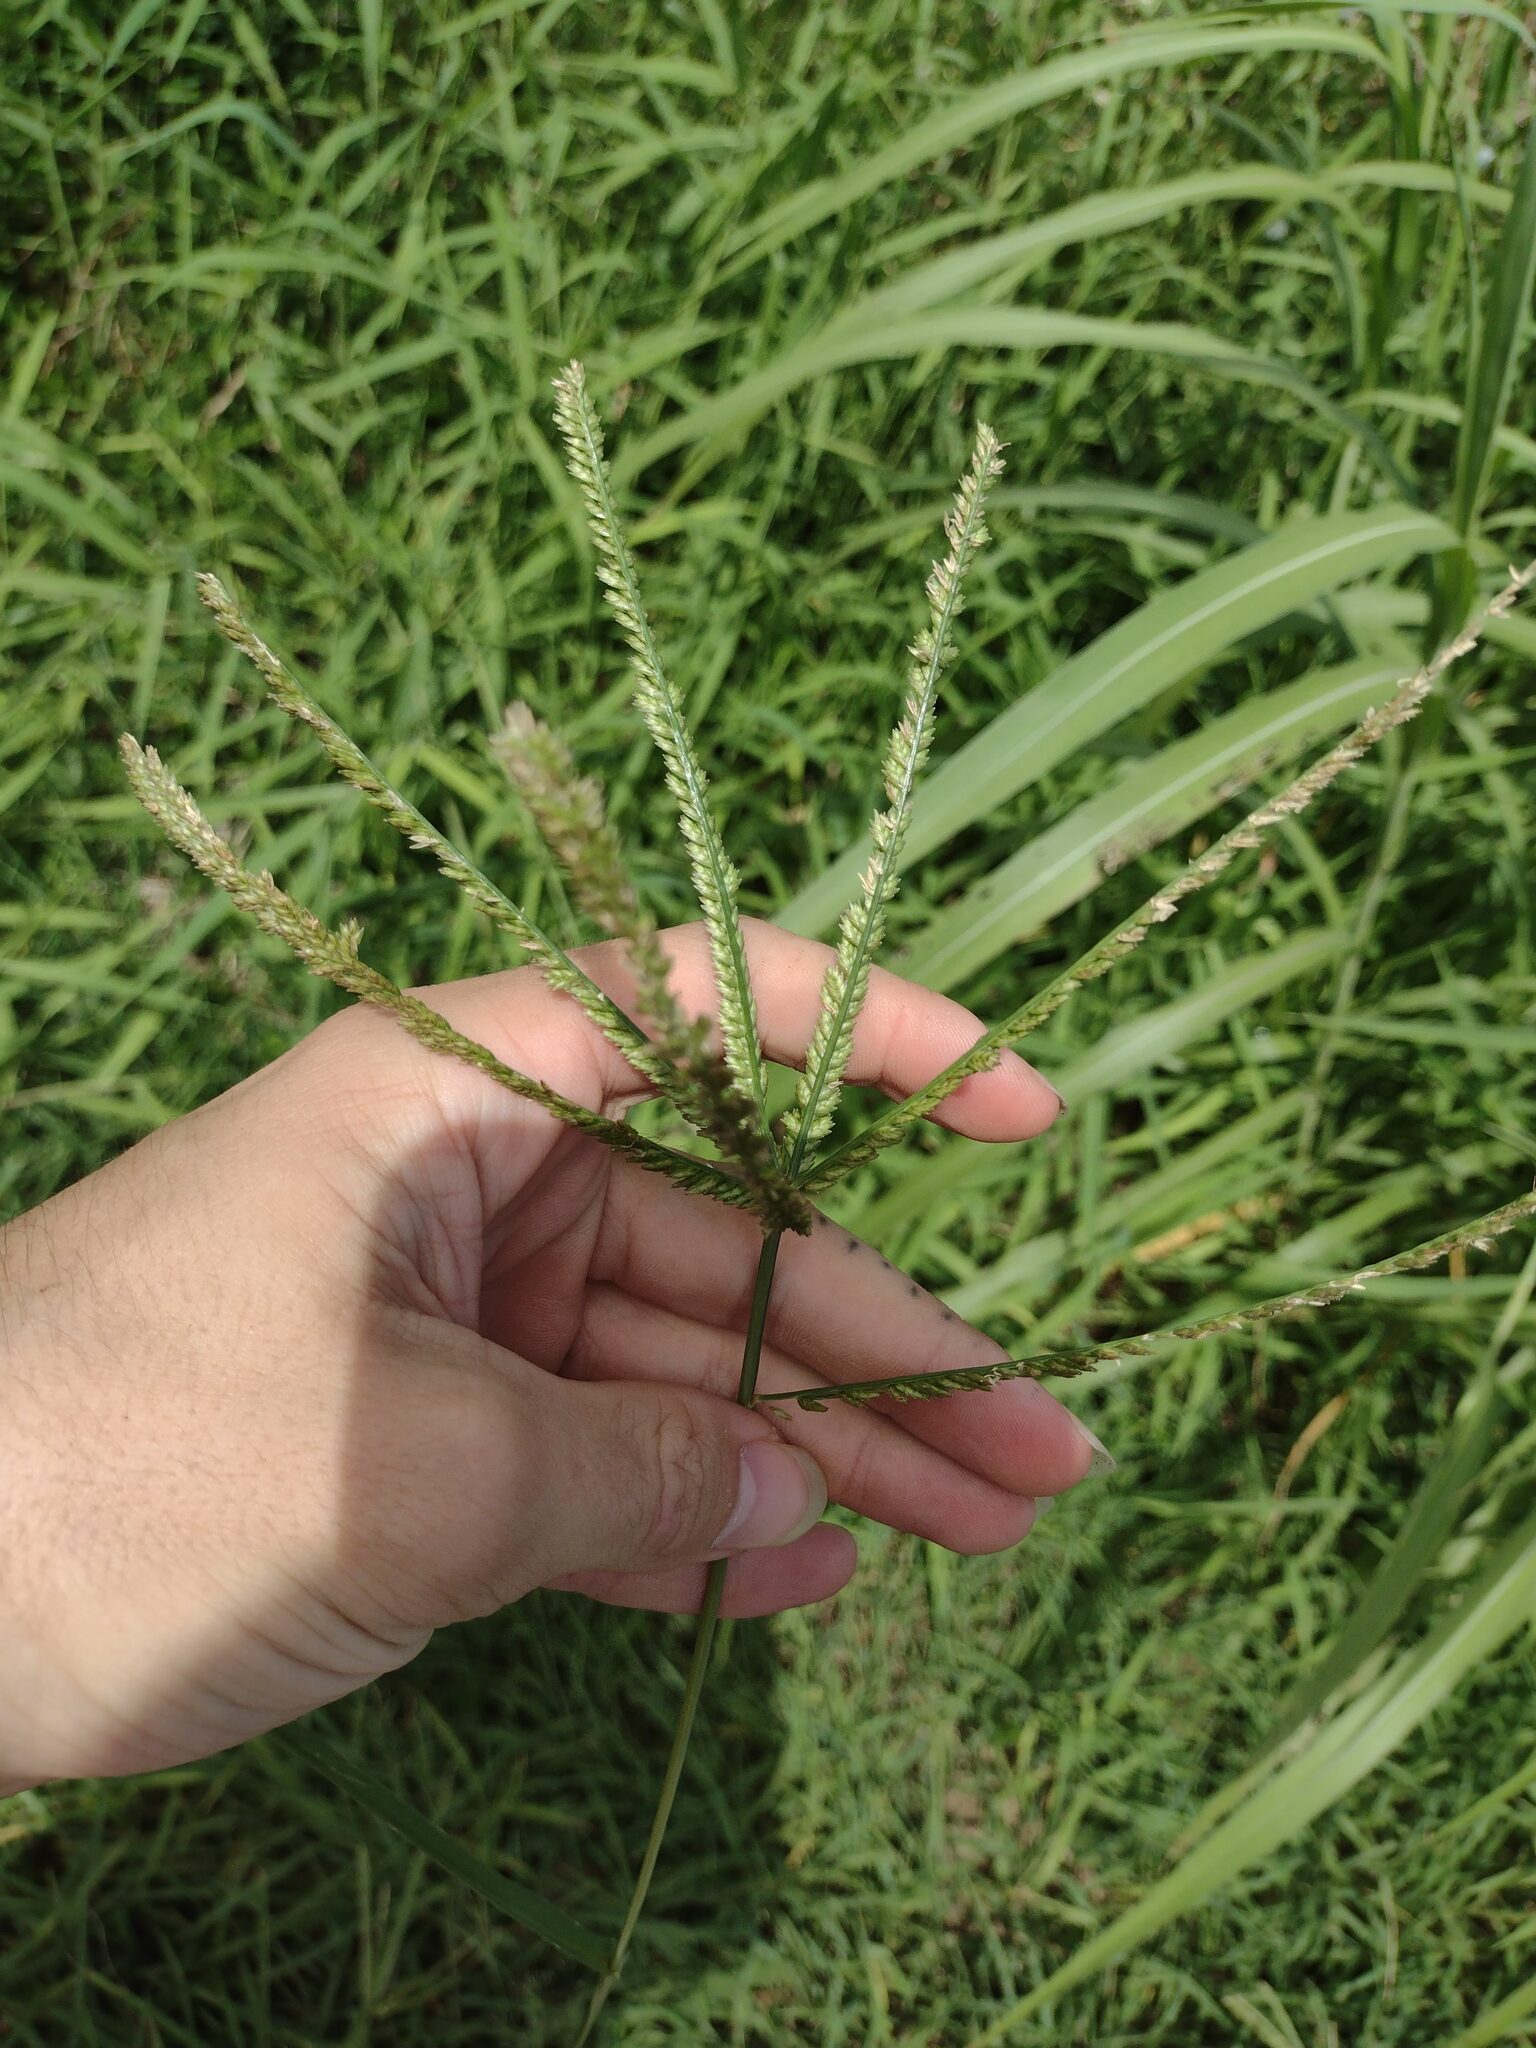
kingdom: Plantae
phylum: Tracheophyta
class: Liliopsida
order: Poales
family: Poaceae
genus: Eleusine
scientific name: Eleusine indica
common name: Yard-grass
